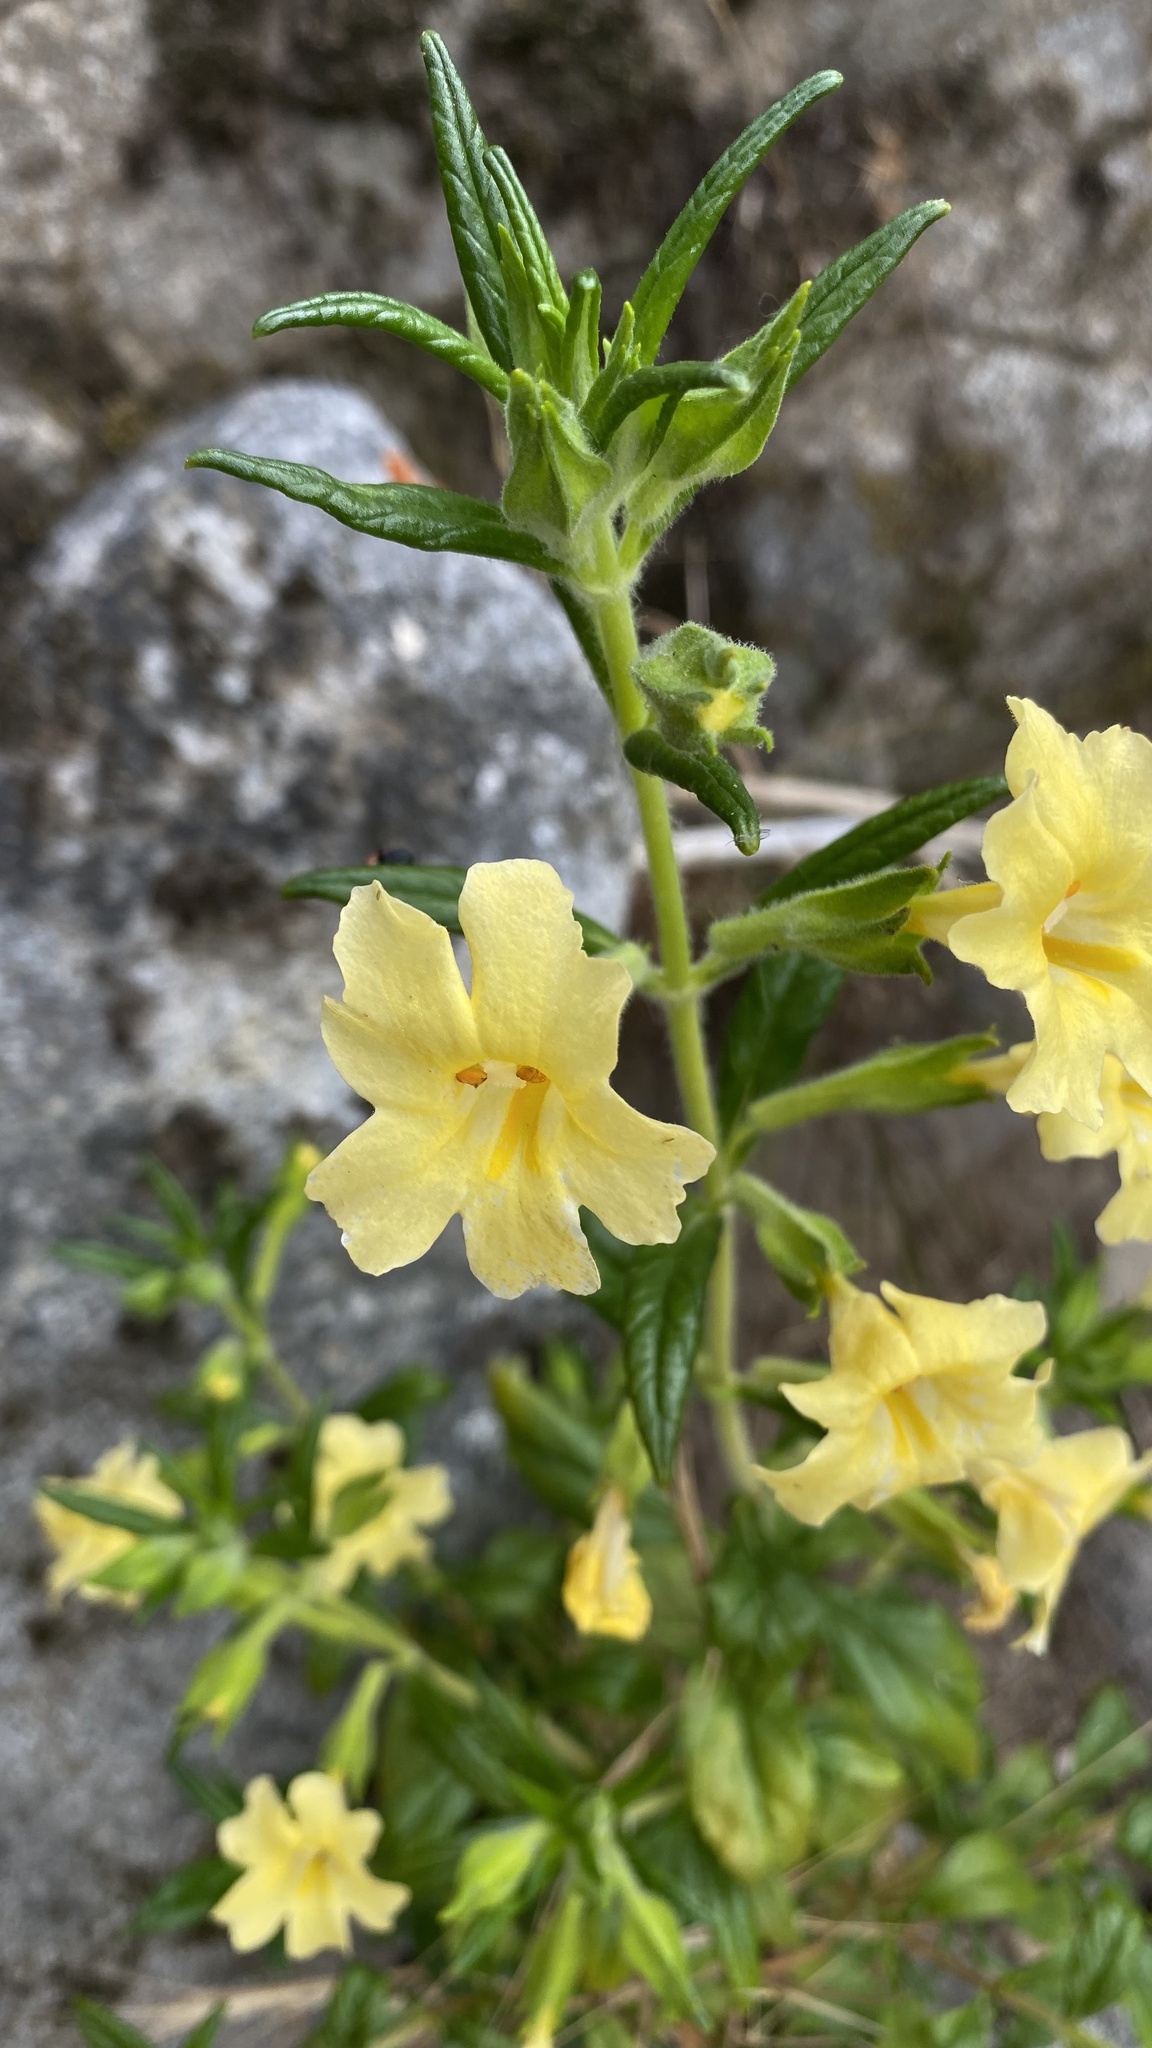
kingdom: Plantae
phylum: Tracheophyta
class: Magnoliopsida
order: Lamiales
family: Phrymaceae
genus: Diplacus
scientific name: Diplacus calycinus
